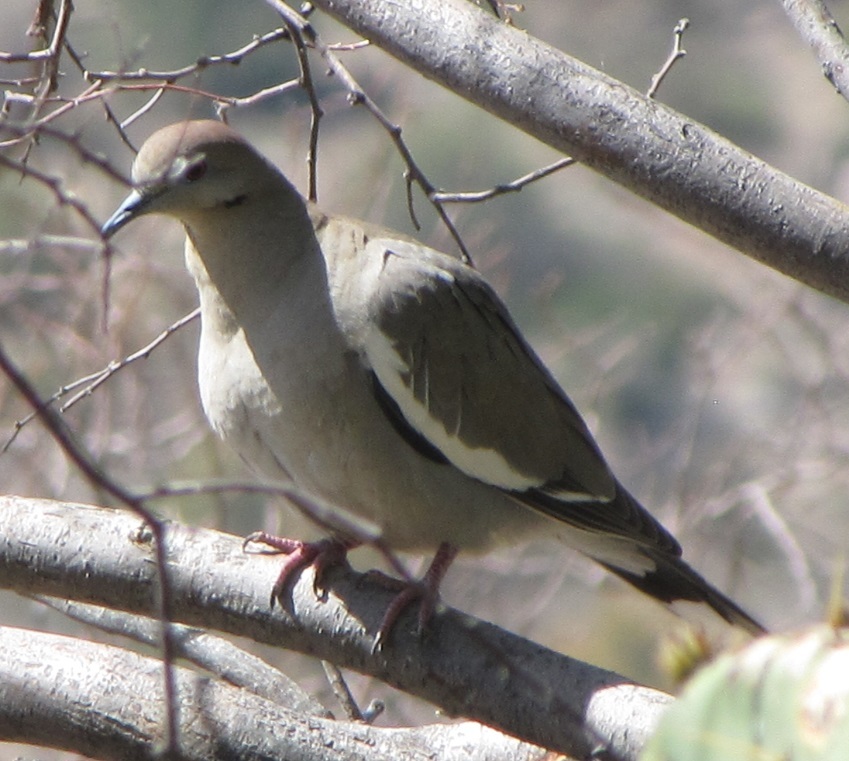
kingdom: Animalia
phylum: Chordata
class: Aves
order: Columbiformes
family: Columbidae
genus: Zenaida
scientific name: Zenaida asiatica
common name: White-winged dove
